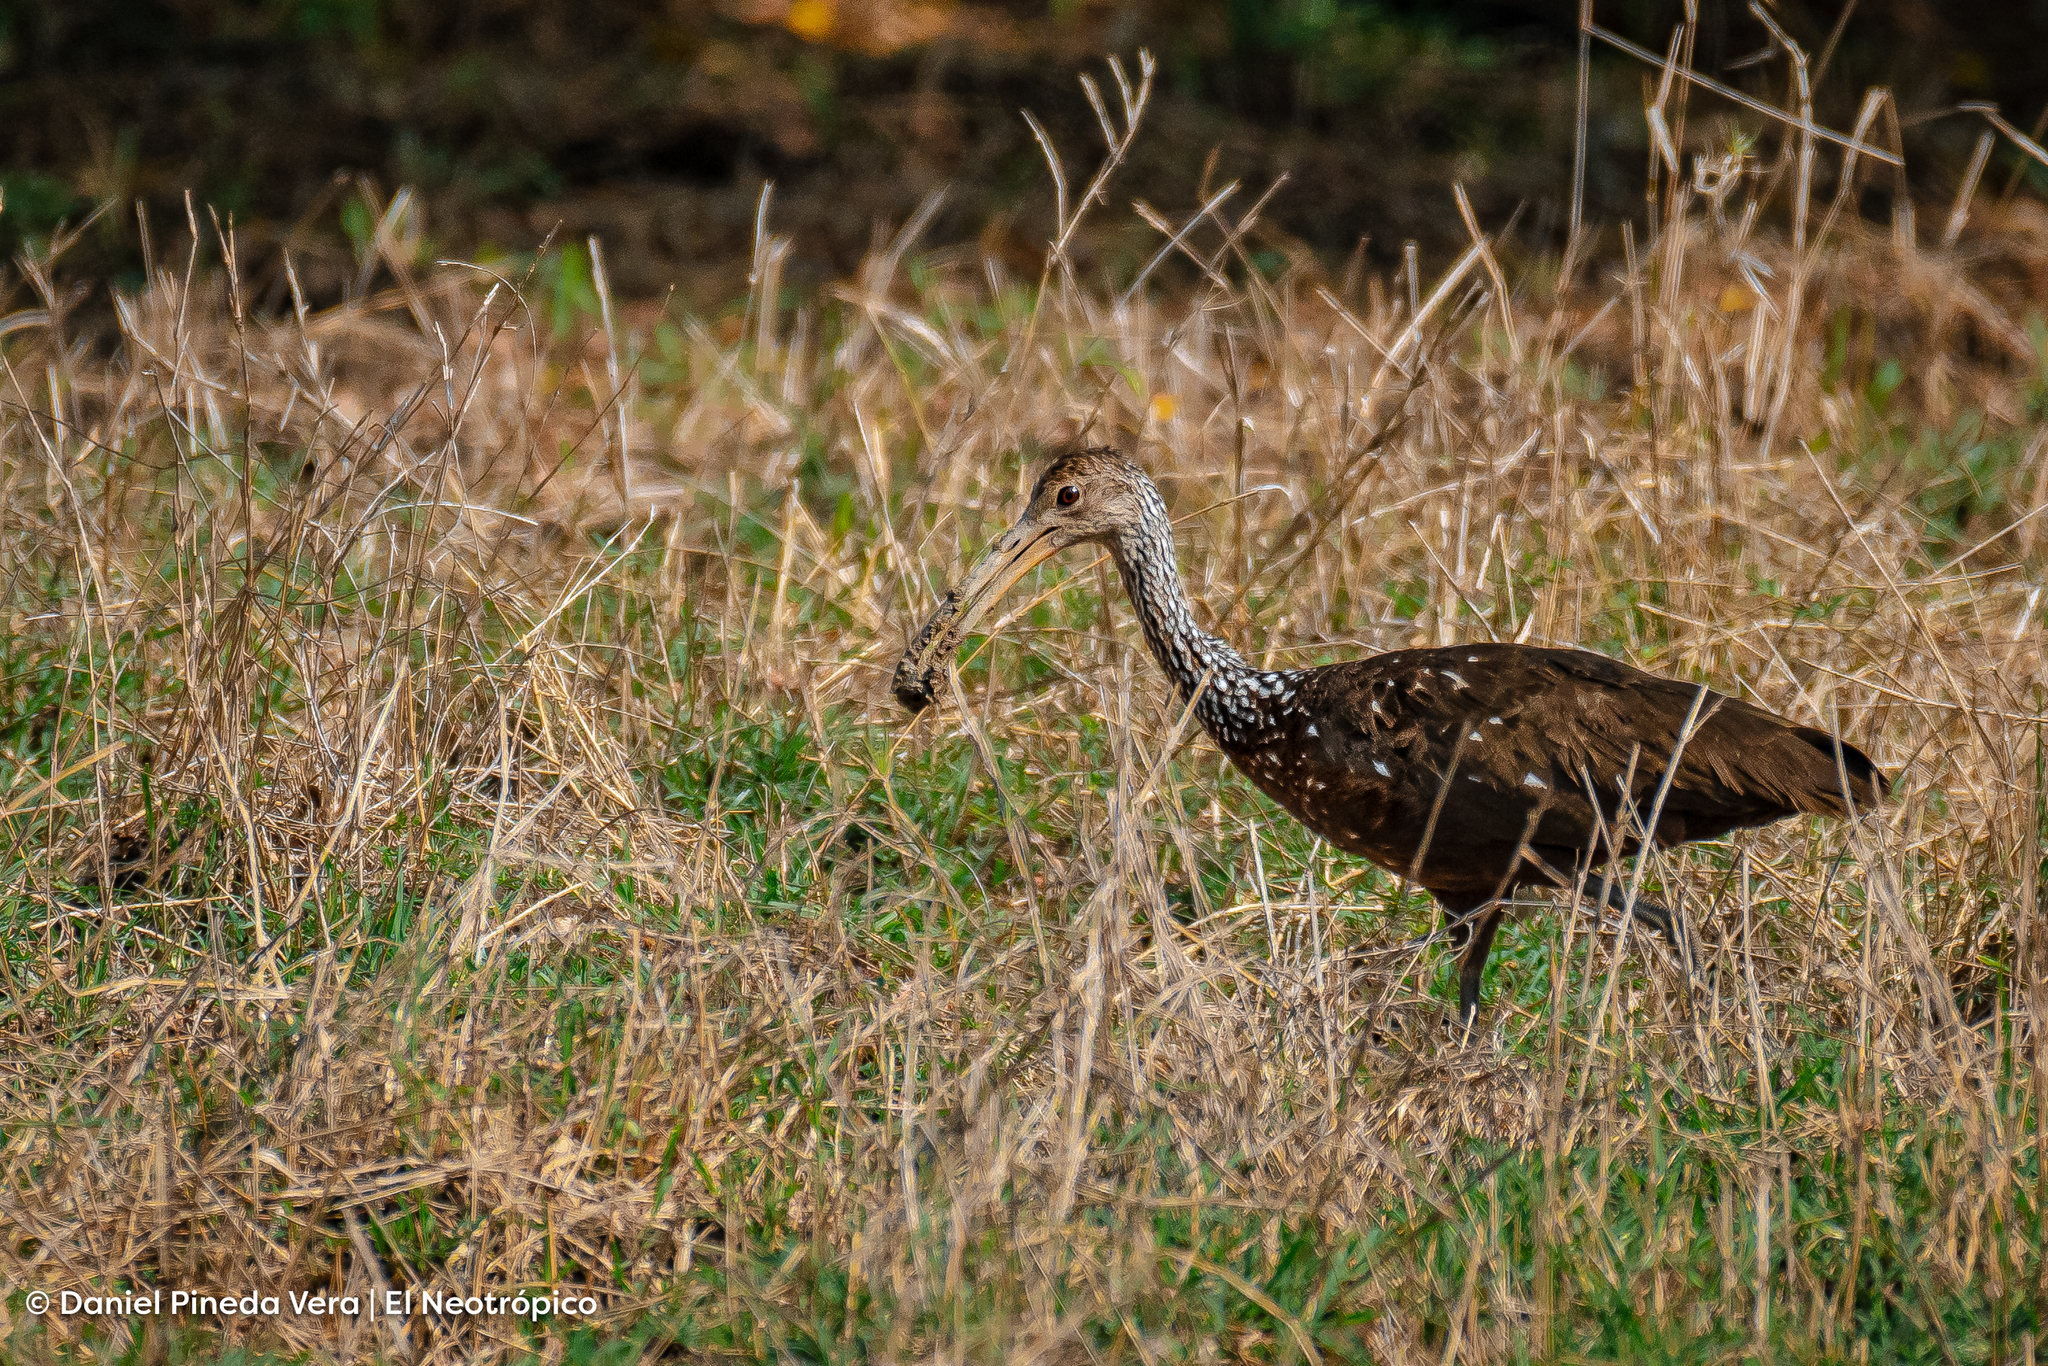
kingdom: Animalia
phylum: Chordata
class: Aves
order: Gruiformes
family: Aramidae
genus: Aramus
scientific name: Aramus guarauna
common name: Limpkin
